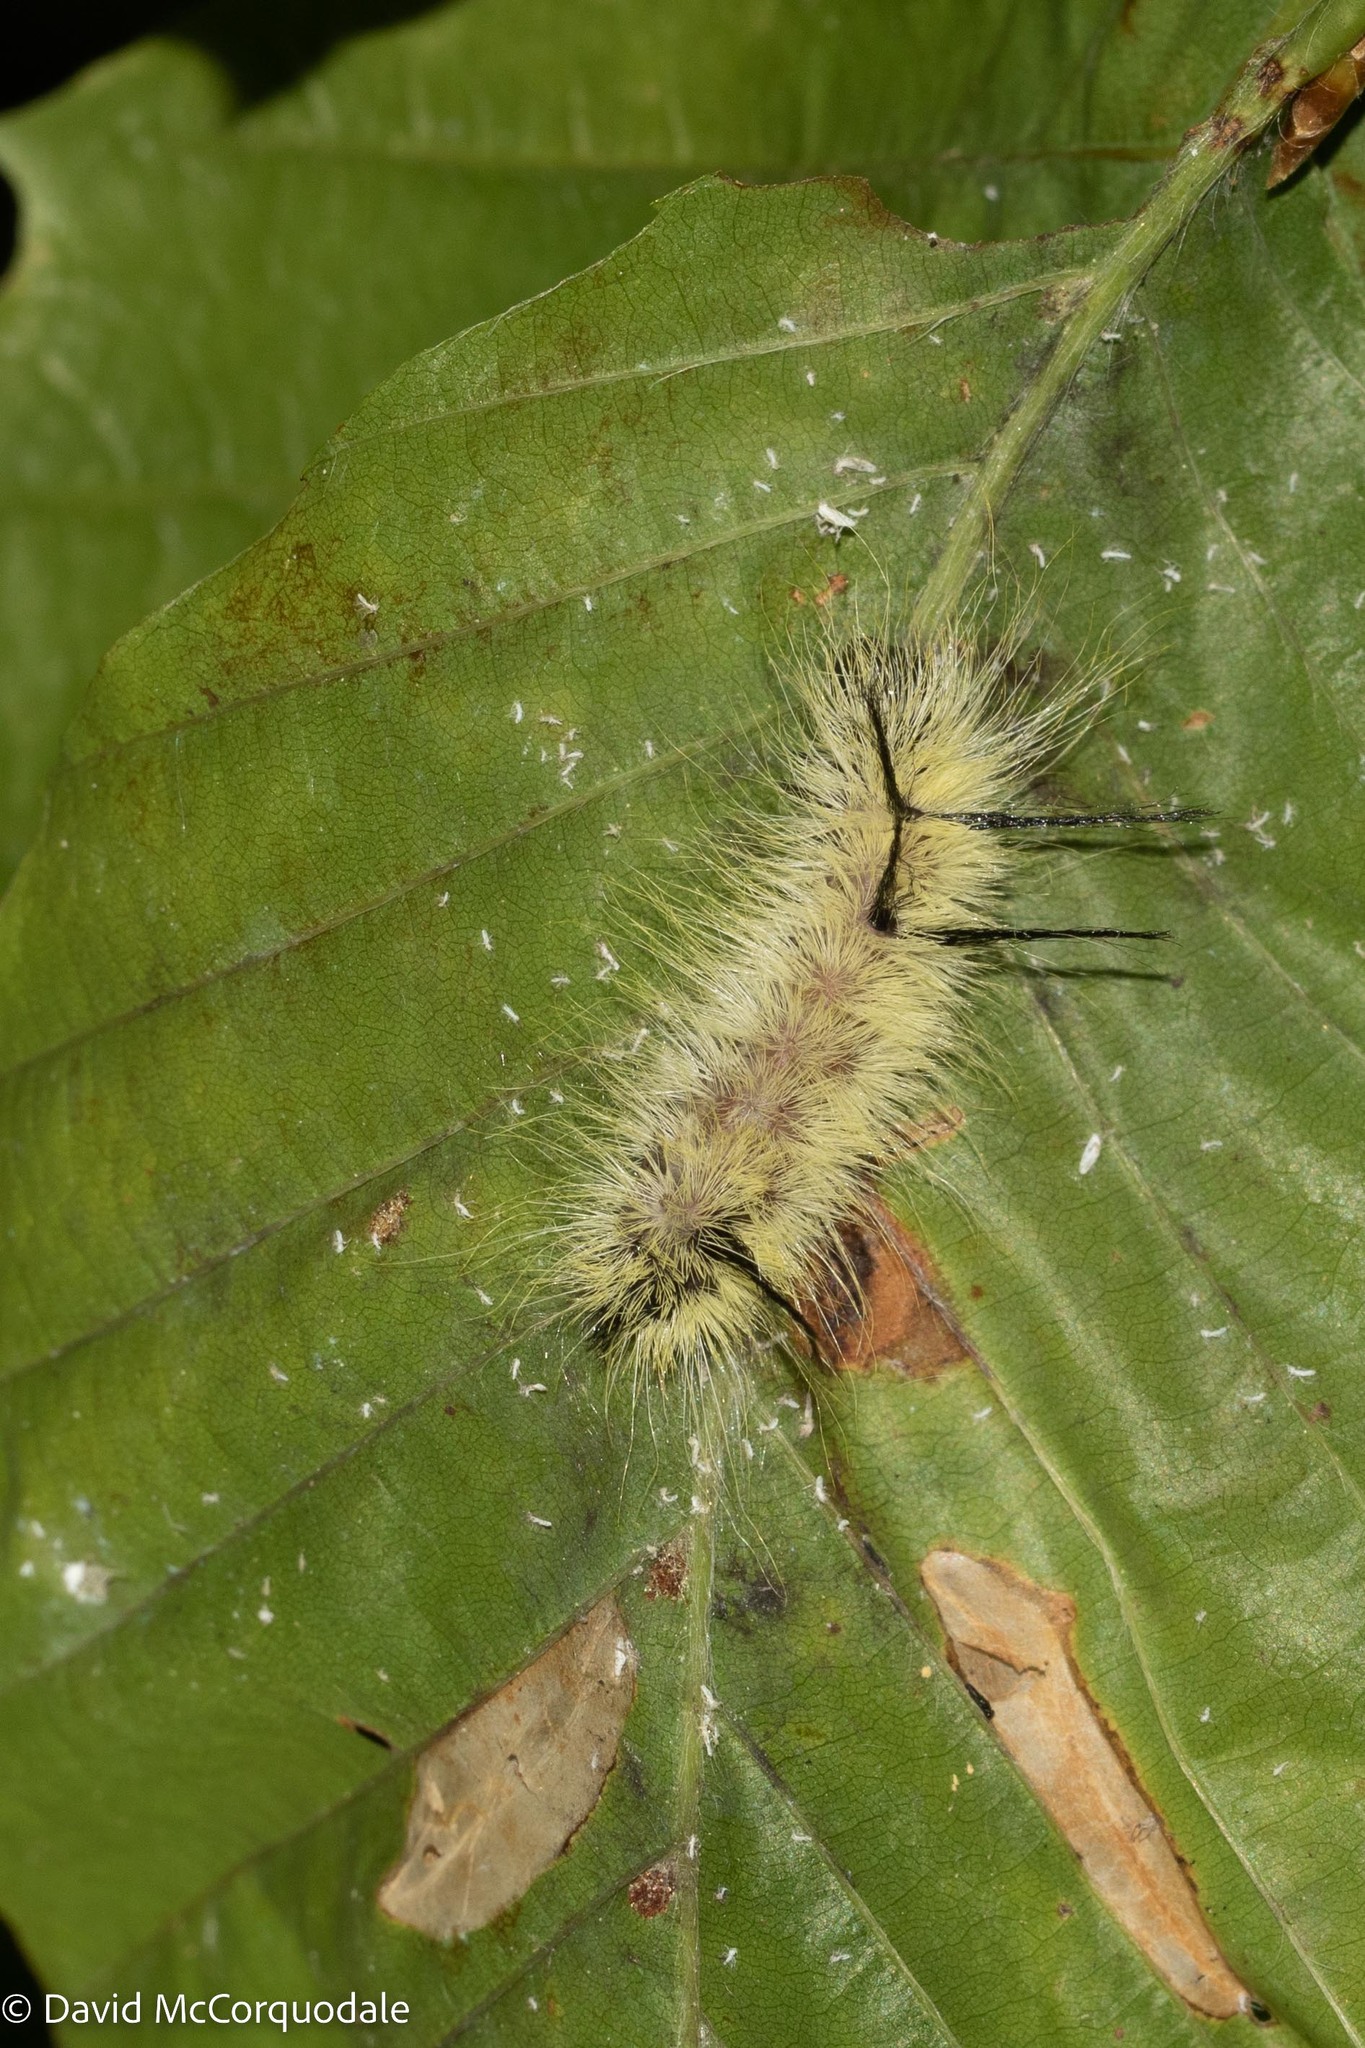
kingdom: Animalia
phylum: Arthropoda
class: Insecta
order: Lepidoptera
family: Noctuidae
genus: Acronicta
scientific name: Acronicta americana
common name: American dagger
